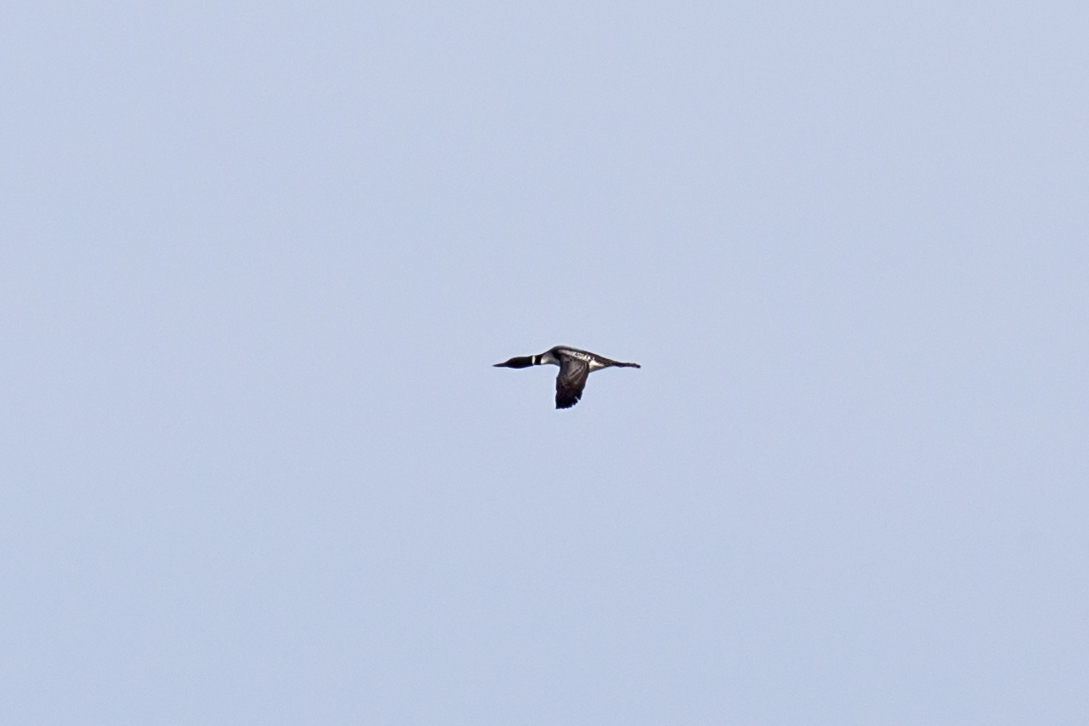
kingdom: Animalia
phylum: Chordata
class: Aves
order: Gaviiformes
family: Gaviidae
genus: Gavia
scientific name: Gavia immer
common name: Common loon
